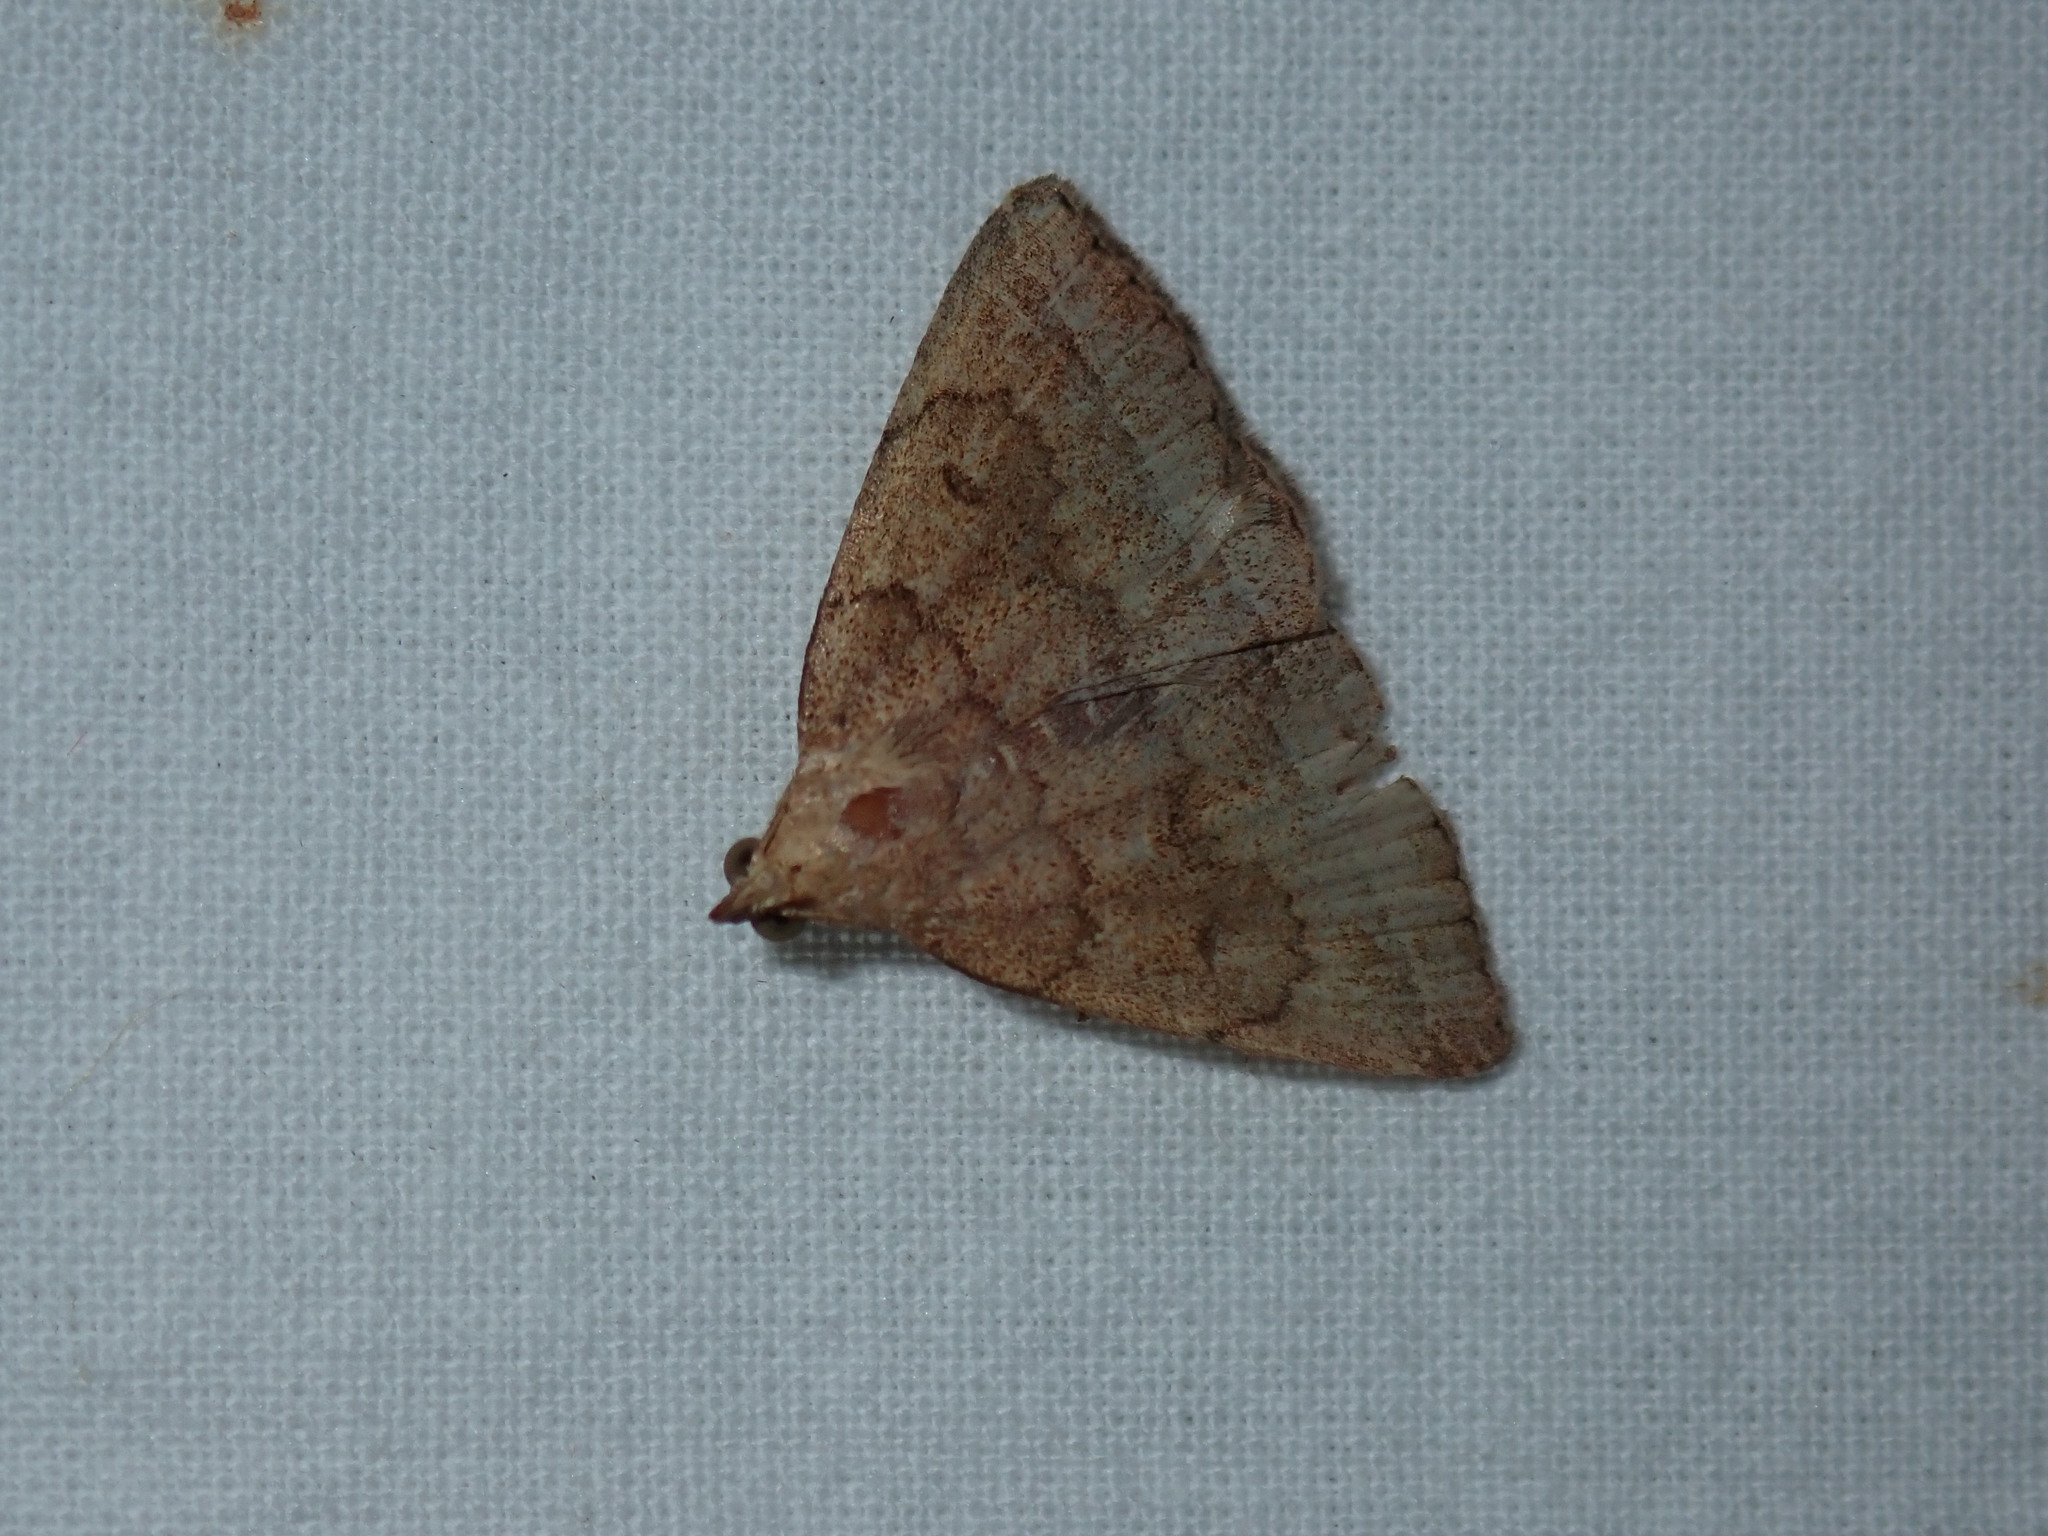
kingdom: Animalia
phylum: Arthropoda
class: Insecta
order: Lepidoptera
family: Erebidae
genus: Zanclognatha
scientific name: Zanclognatha jacchusalis
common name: Yellowish zanclognatha
